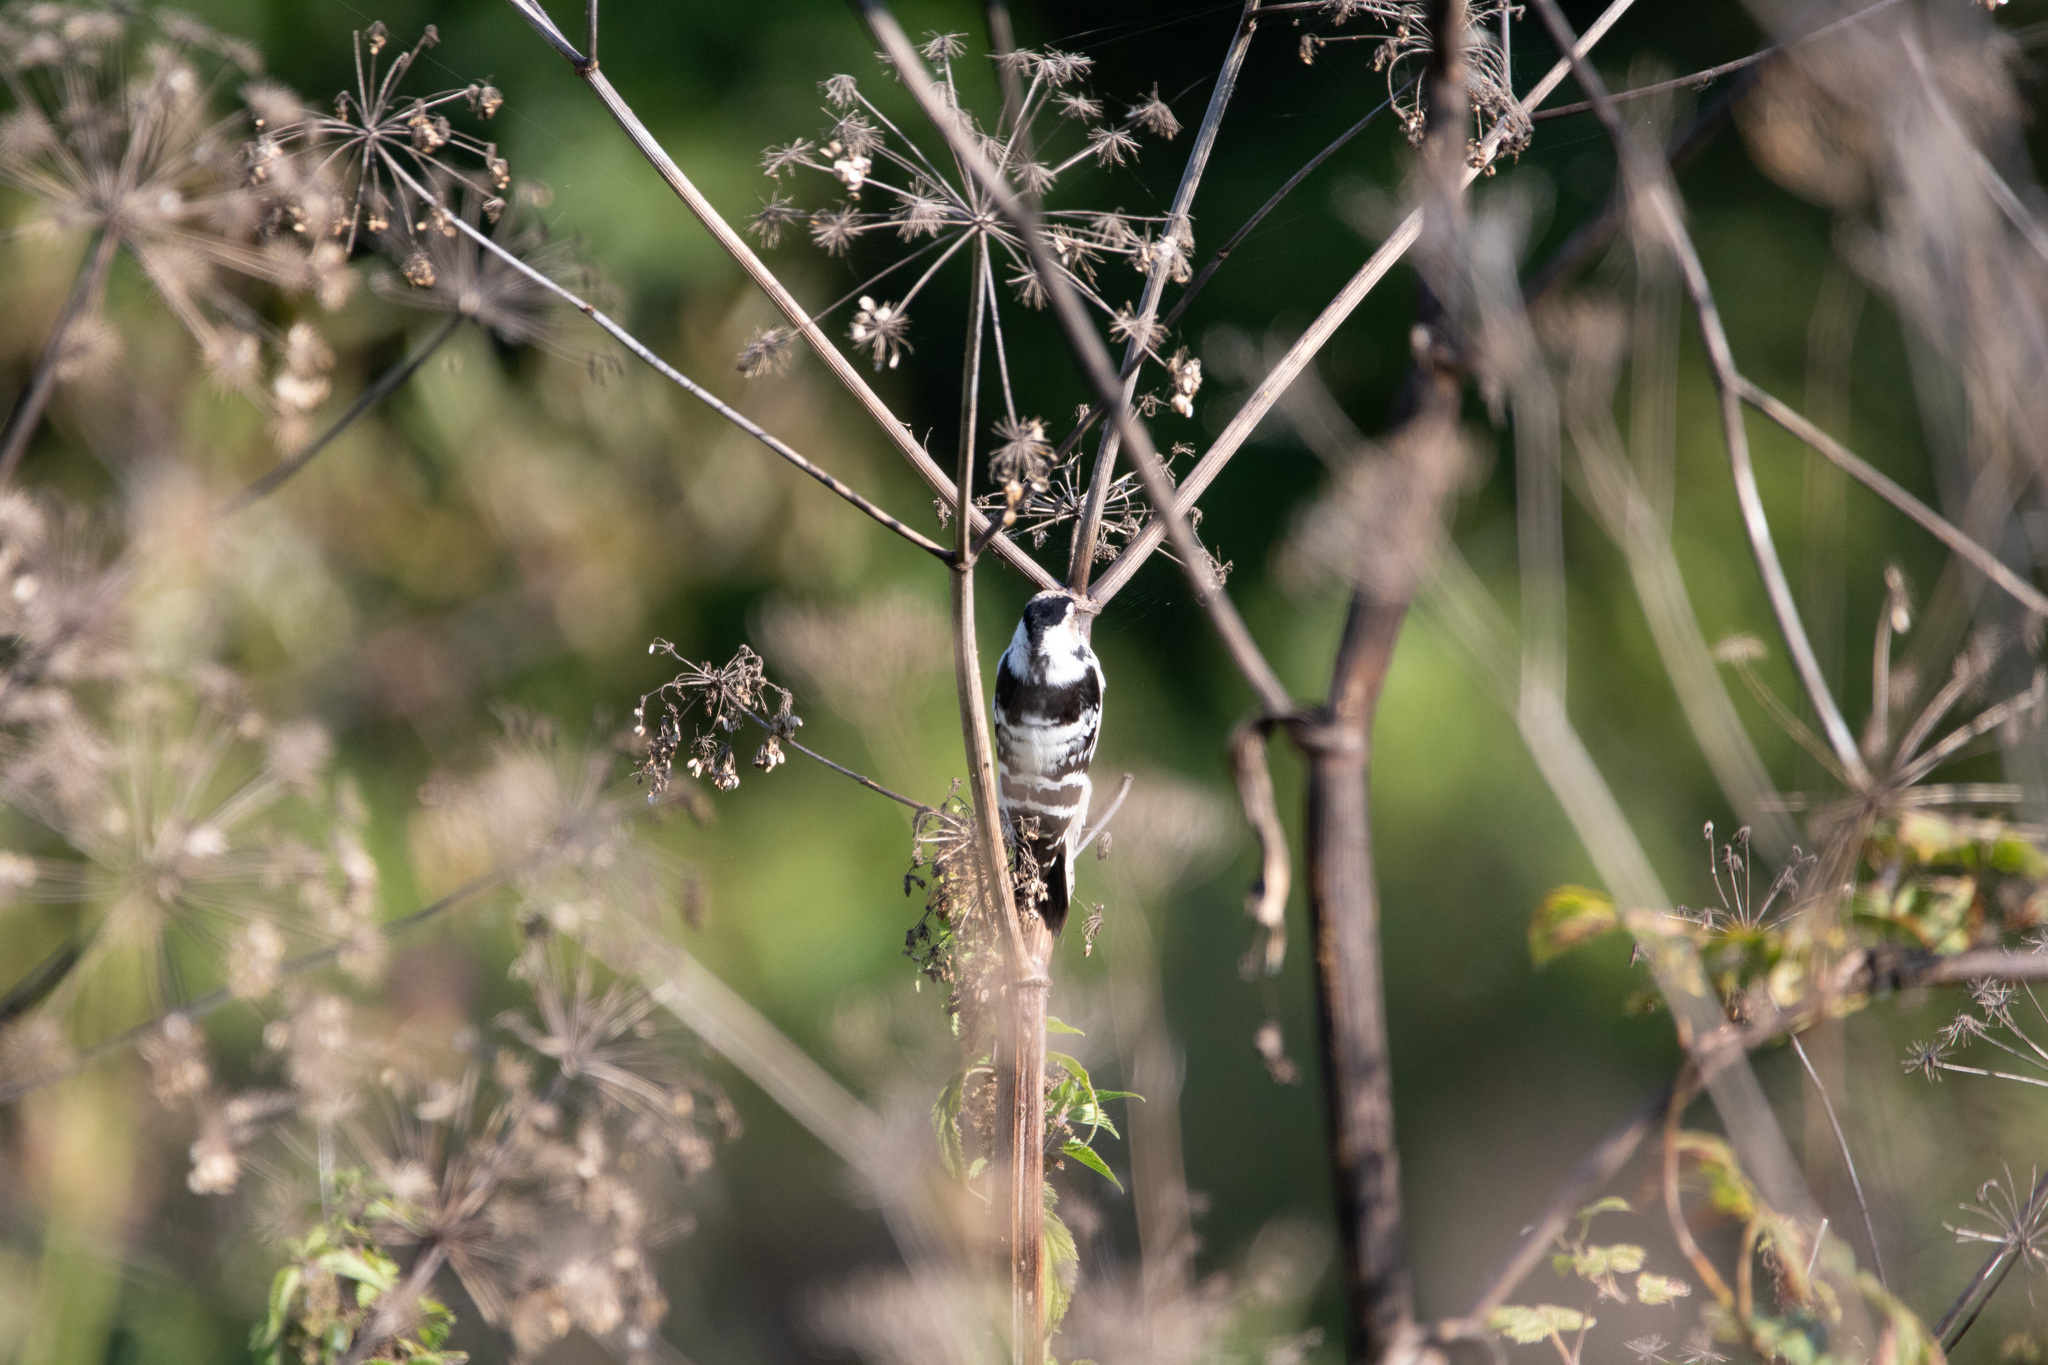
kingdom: Animalia
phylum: Chordata
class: Aves
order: Piciformes
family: Picidae
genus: Dryobates
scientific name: Dryobates minor
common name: Lesser spotted woodpecker
